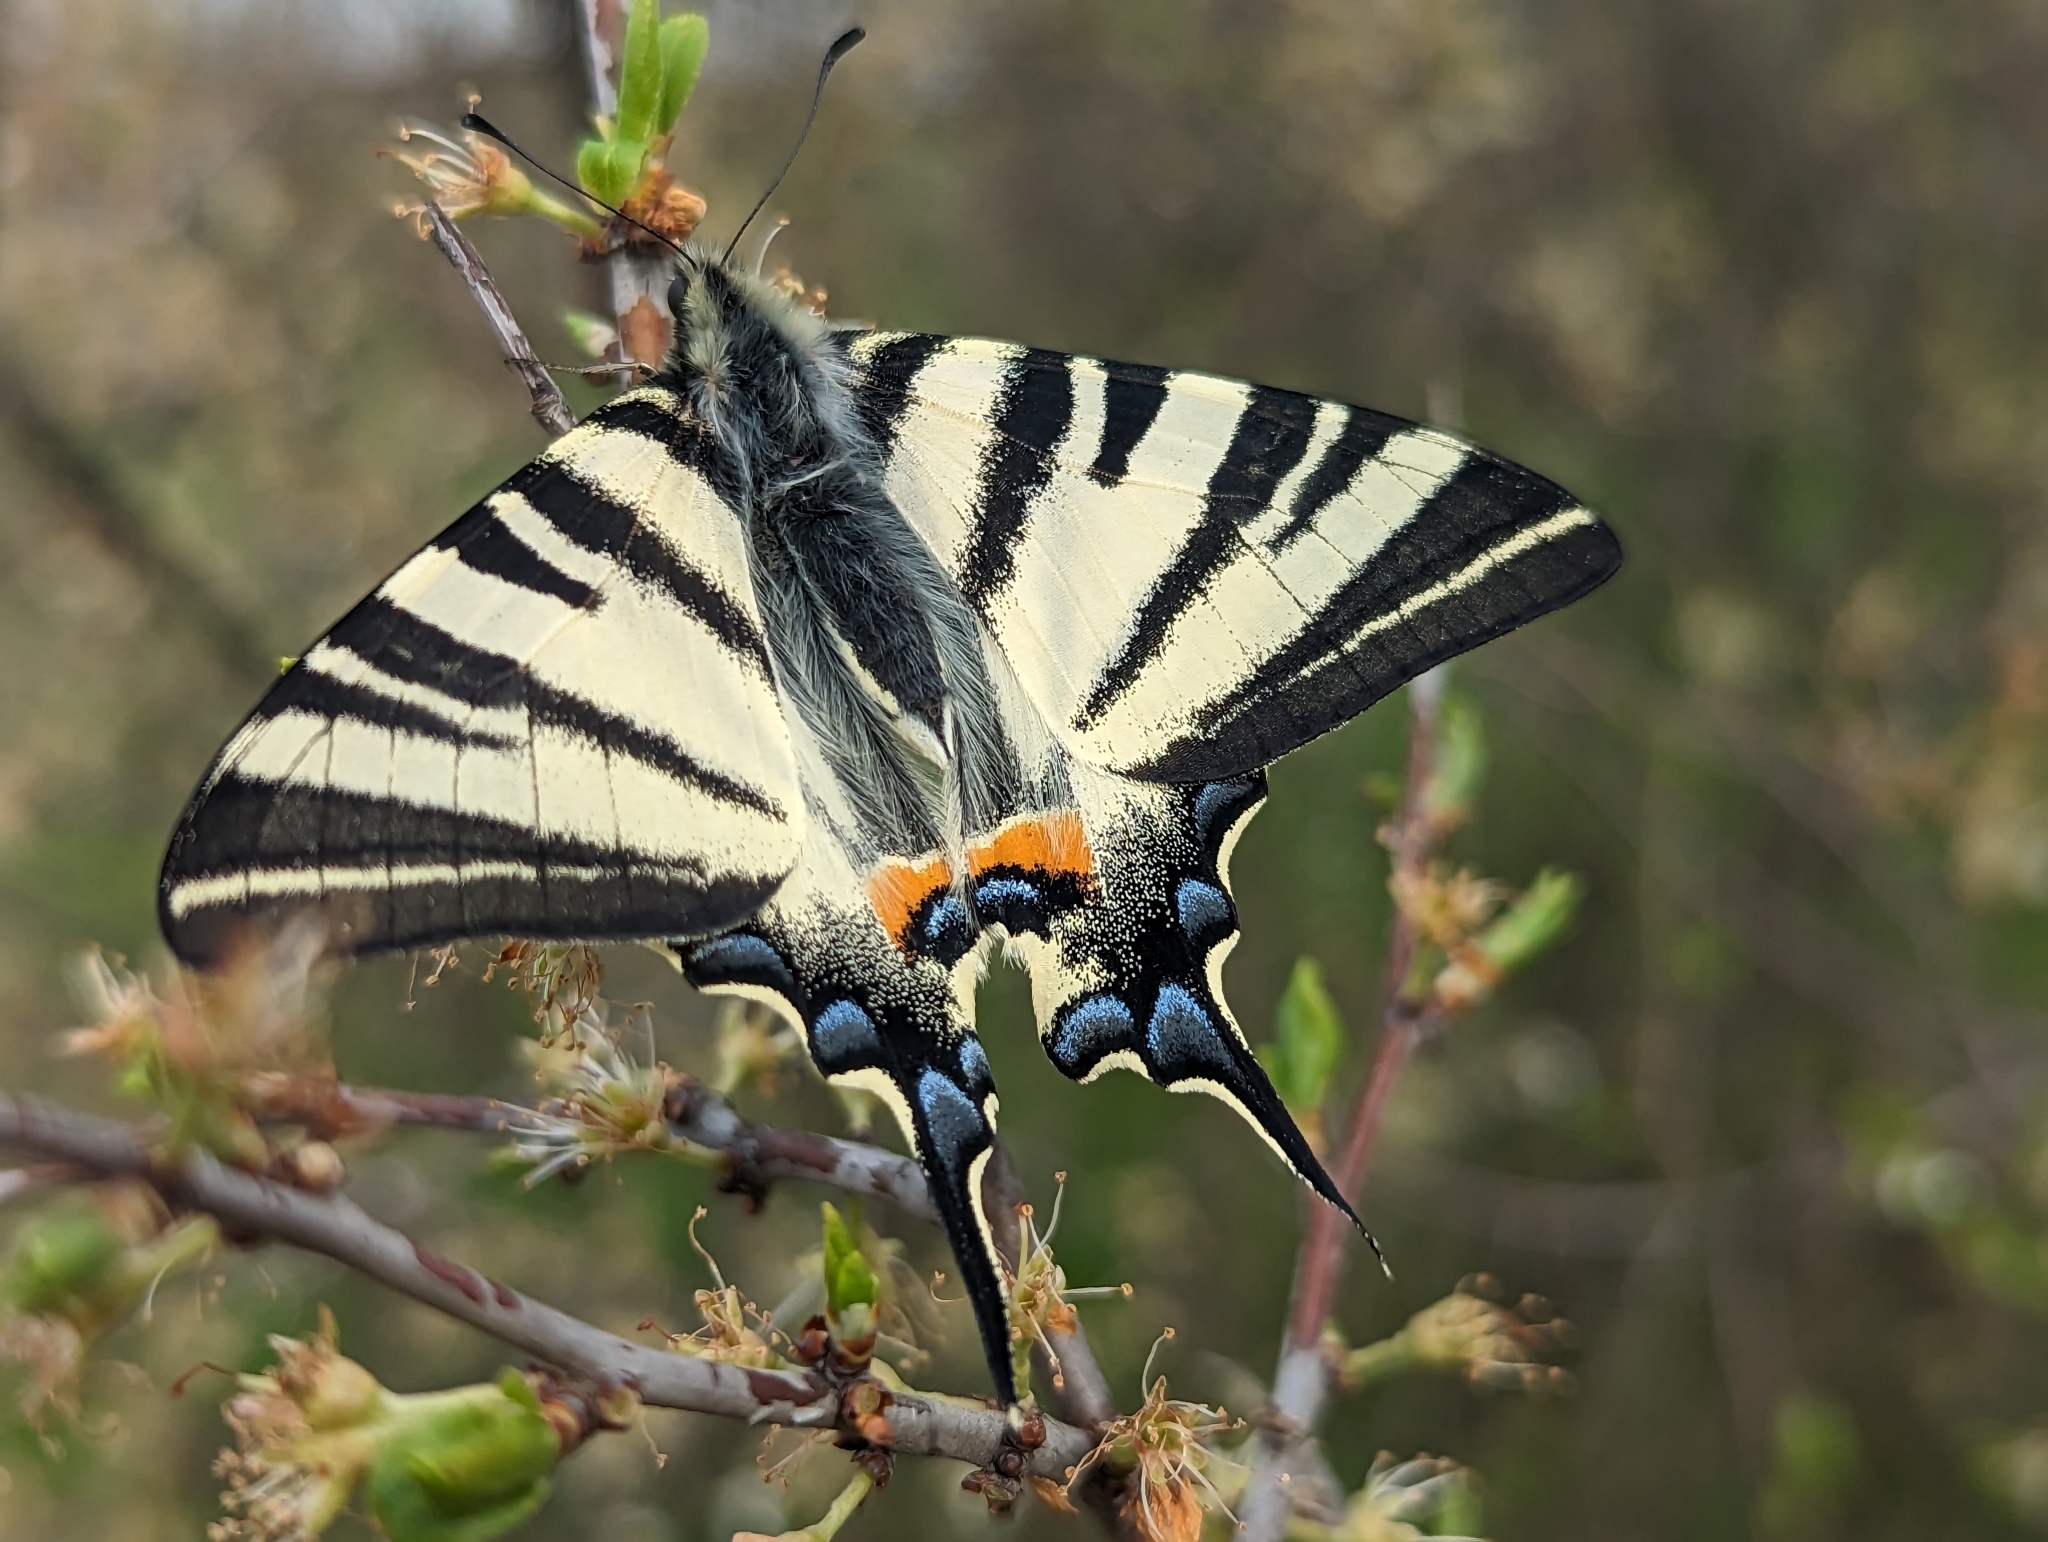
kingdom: Animalia
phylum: Arthropoda
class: Insecta
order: Lepidoptera
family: Papilionidae
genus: Iphiclides
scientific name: Iphiclides podalirius
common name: Scarce swallowtail
